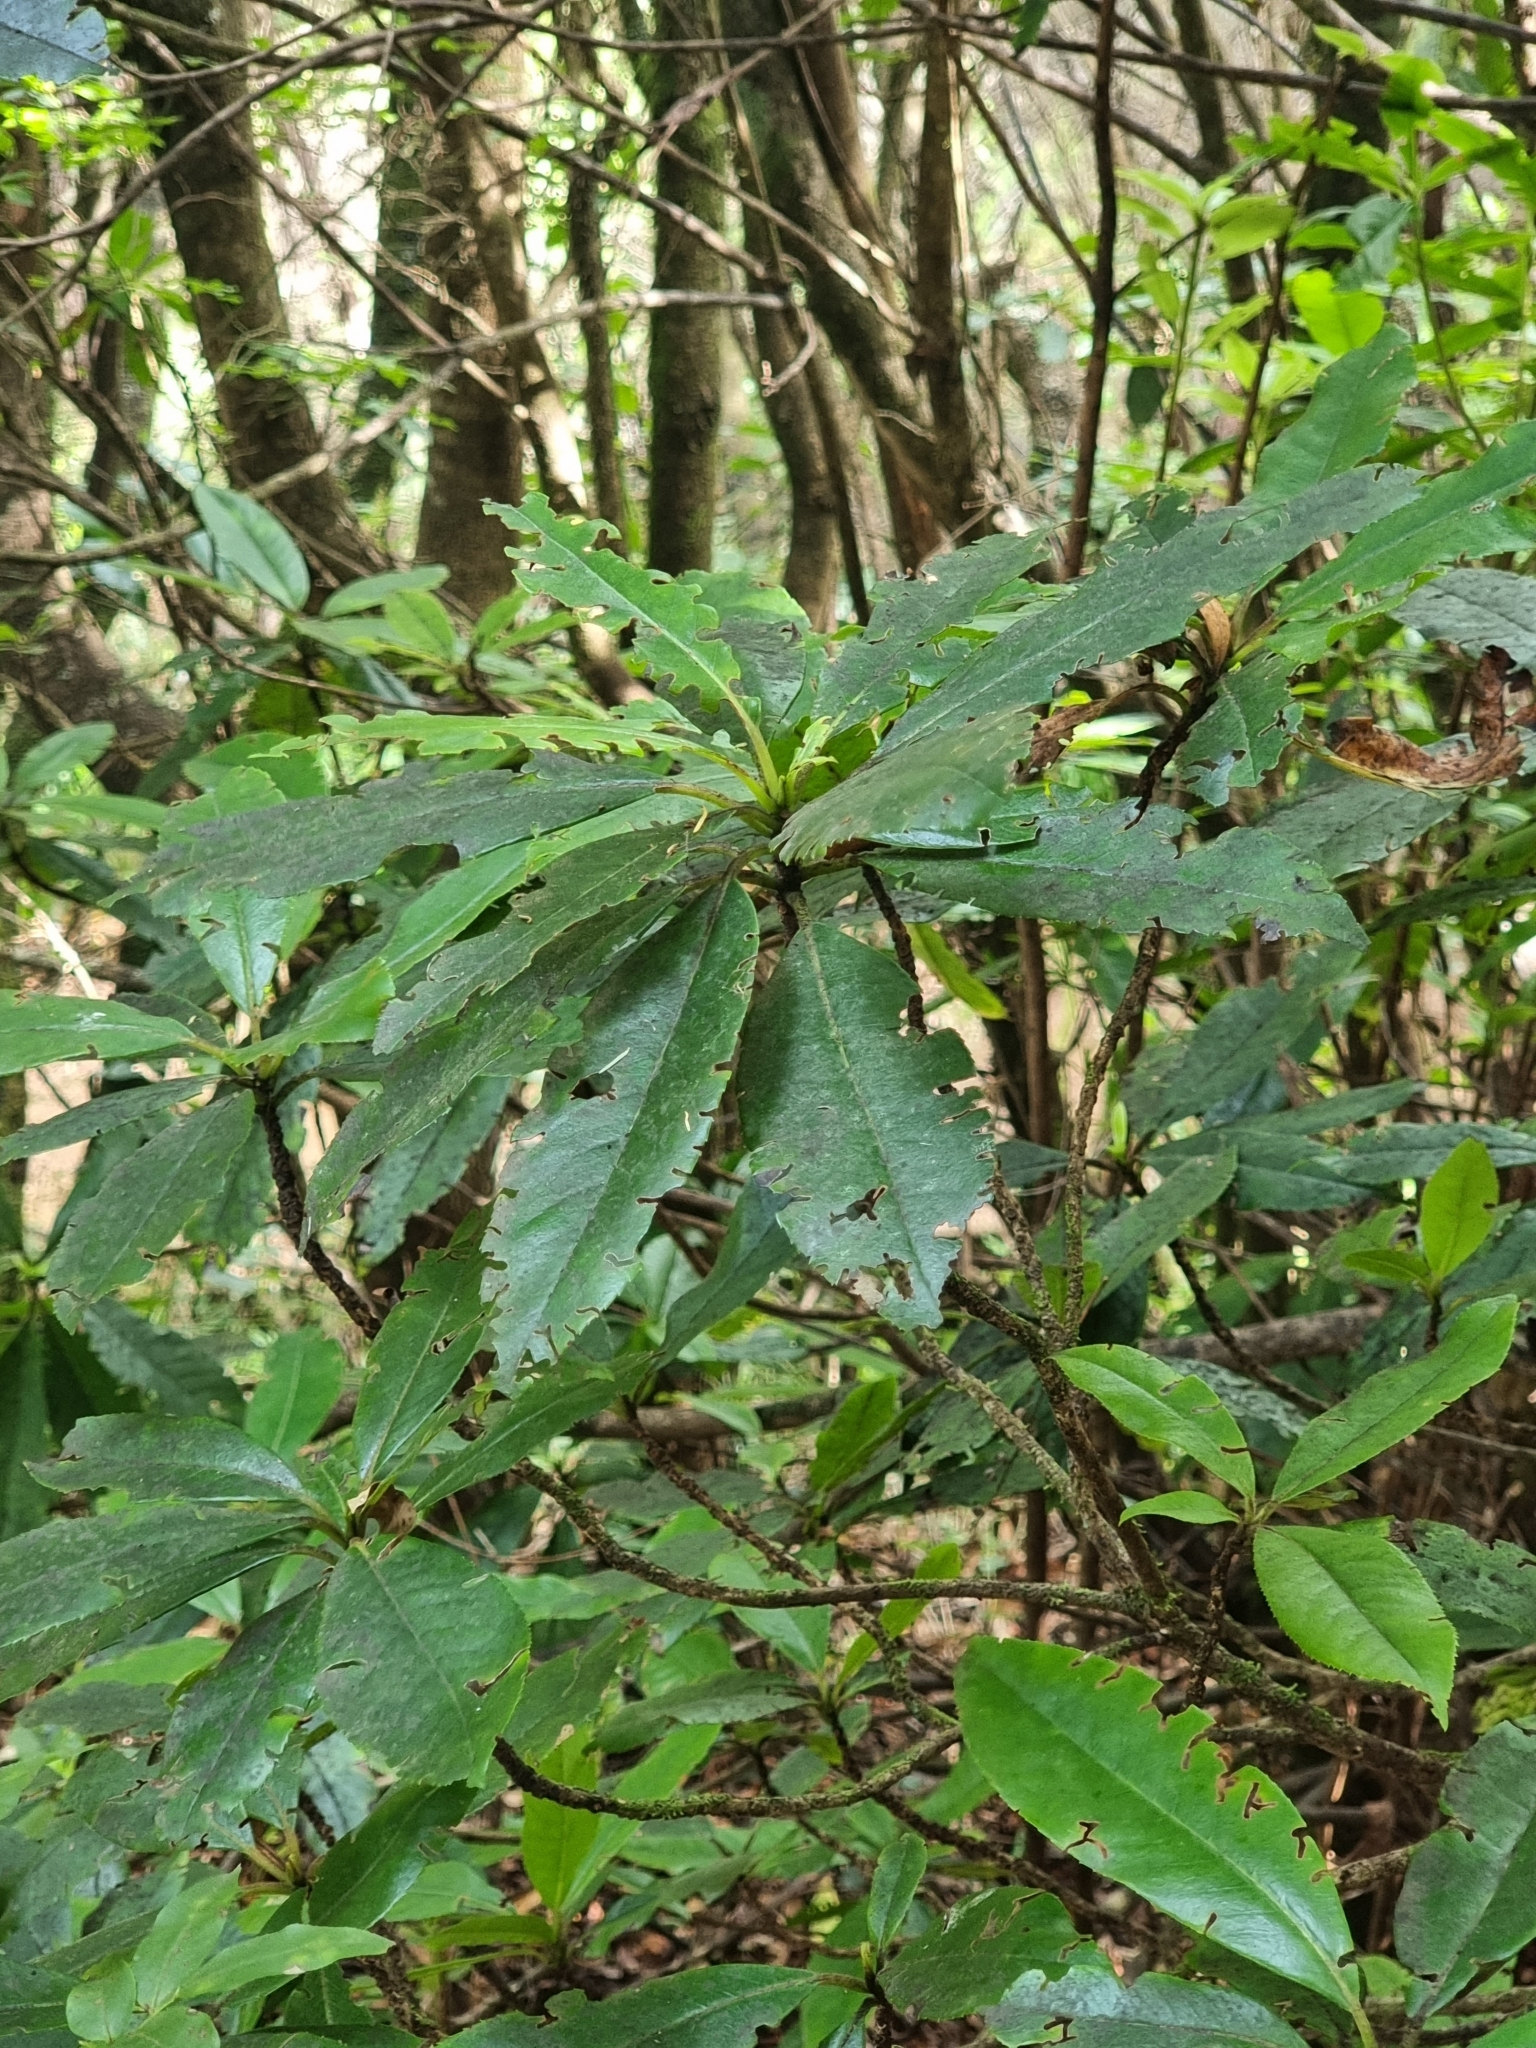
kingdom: Plantae
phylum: Tracheophyta
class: Magnoliopsida
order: Ericales
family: Clethraceae
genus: Clethra
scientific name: Clethra arborea
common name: Lily-of-the-valley-tree
